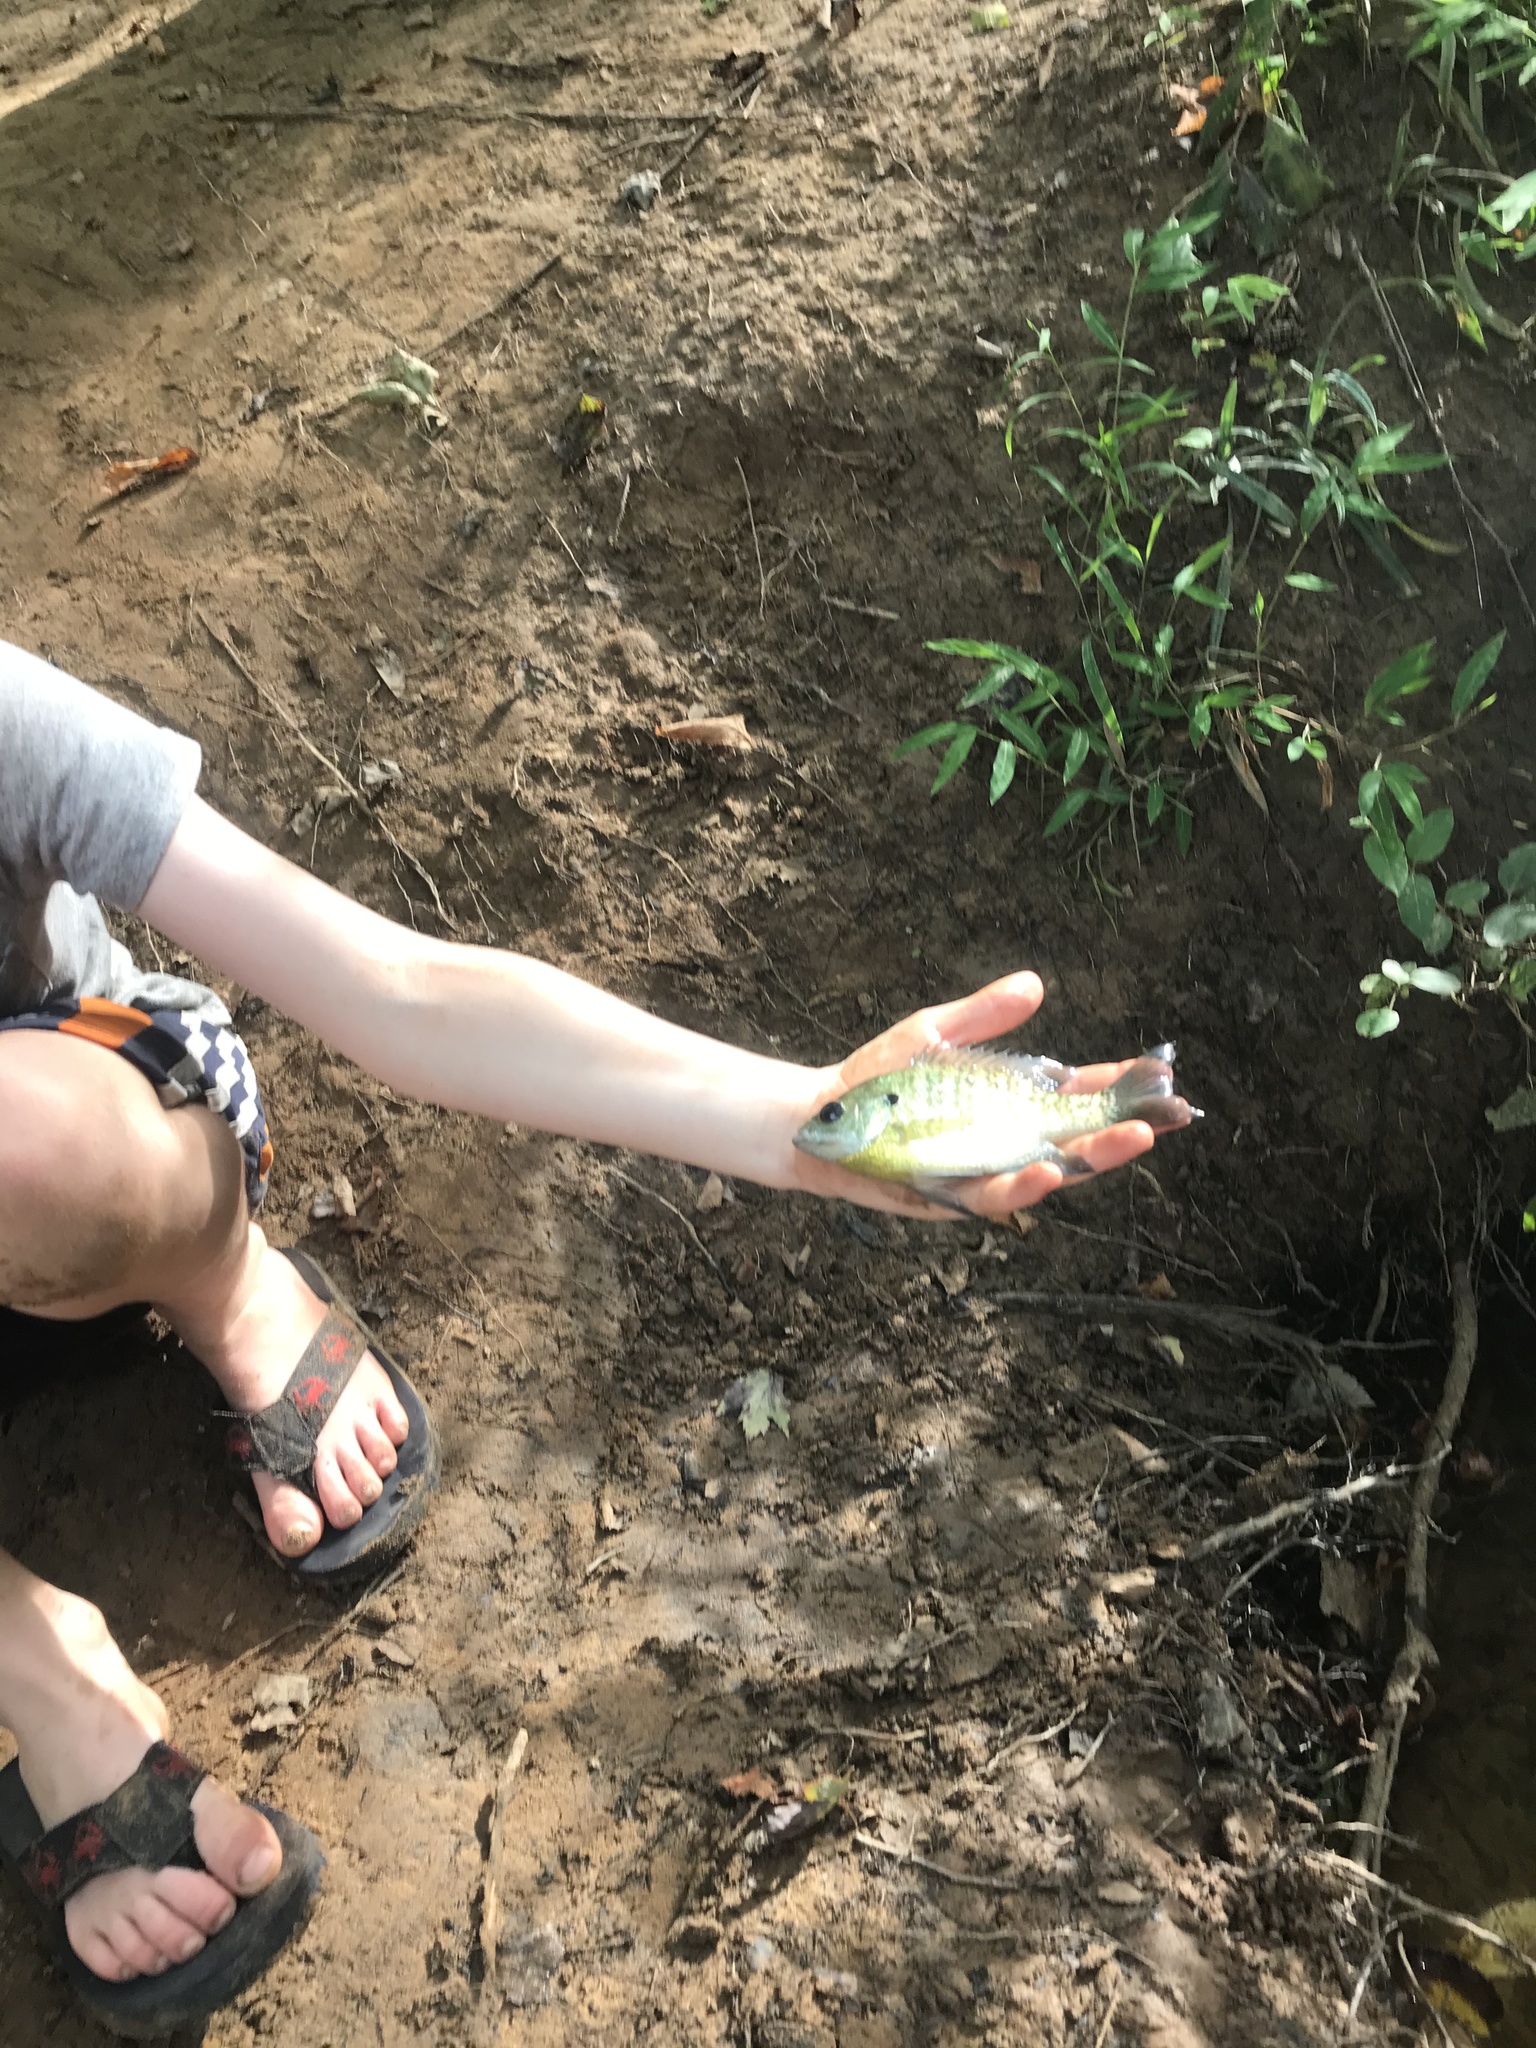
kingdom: Animalia
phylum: Chordata
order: Perciformes
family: Centrarchidae
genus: Lepomis
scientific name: Lepomis macrochirus
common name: Bluegill
